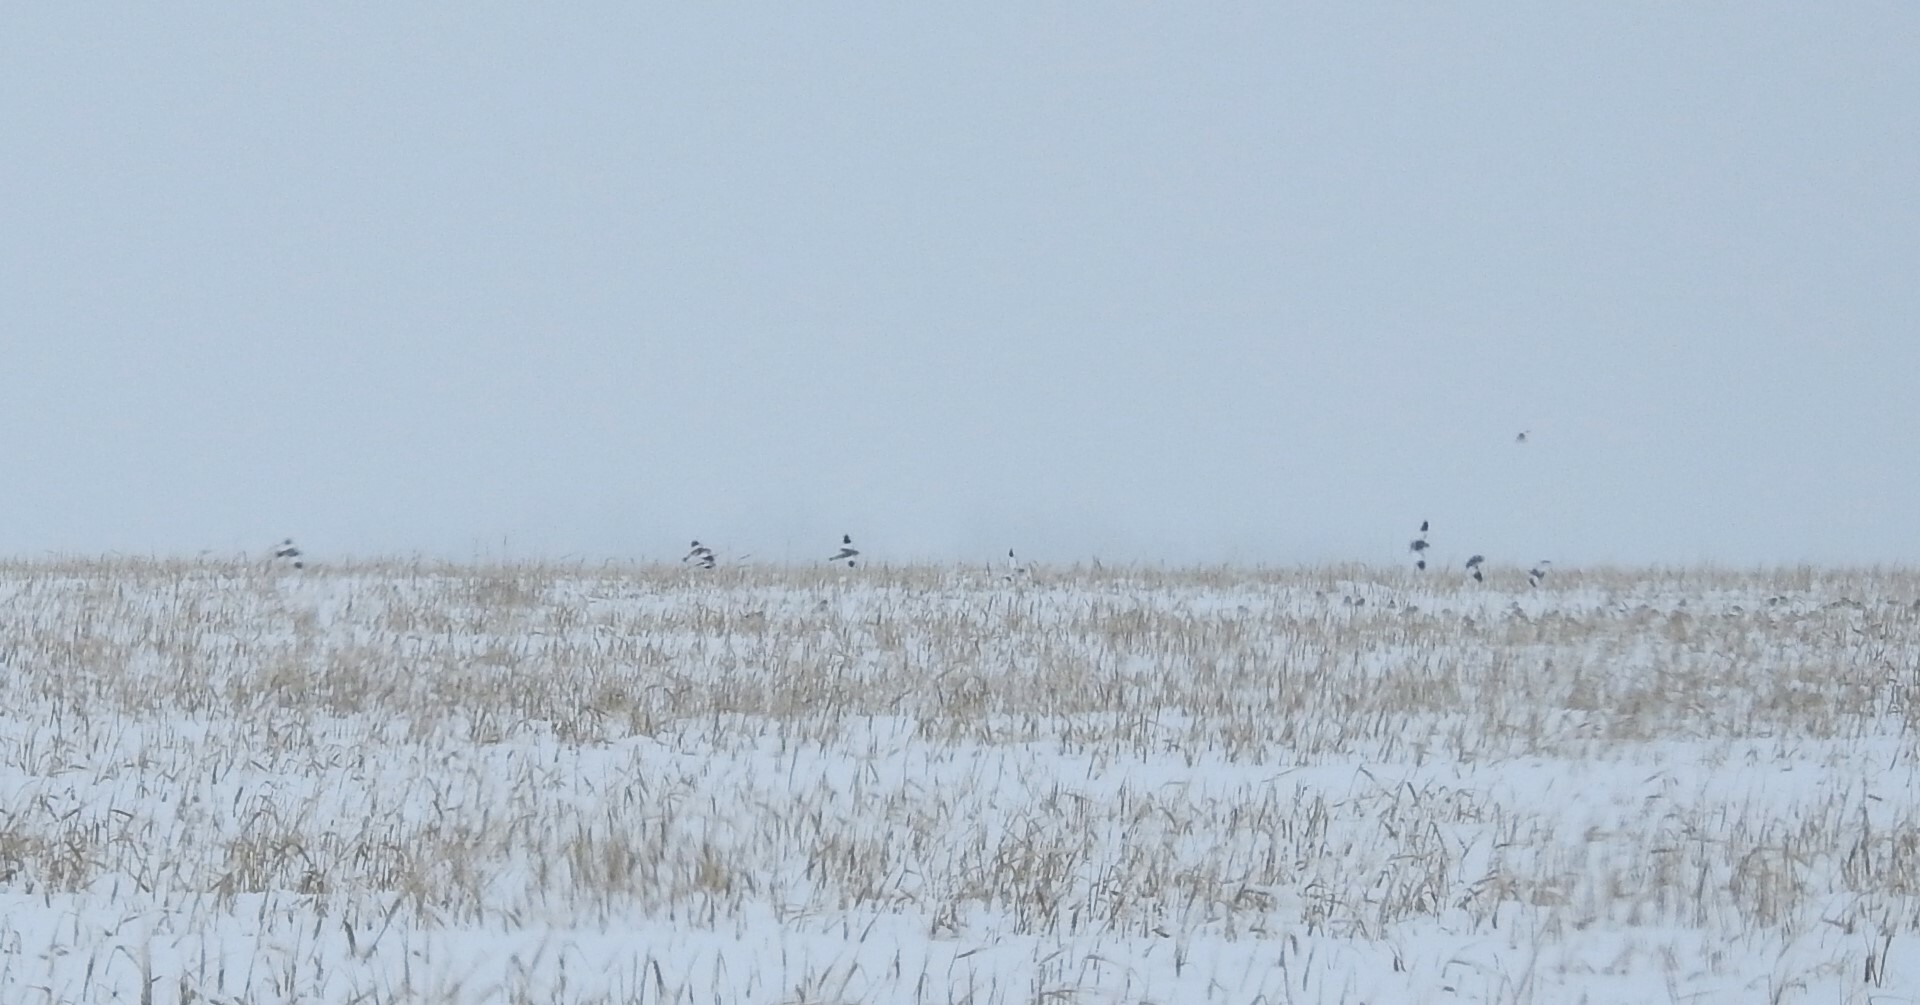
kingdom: Animalia
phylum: Chordata
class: Aves
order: Passeriformes
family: Calcariidae
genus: Plectrophenax
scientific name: Plectrophenax nivalis
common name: Snow bunting
